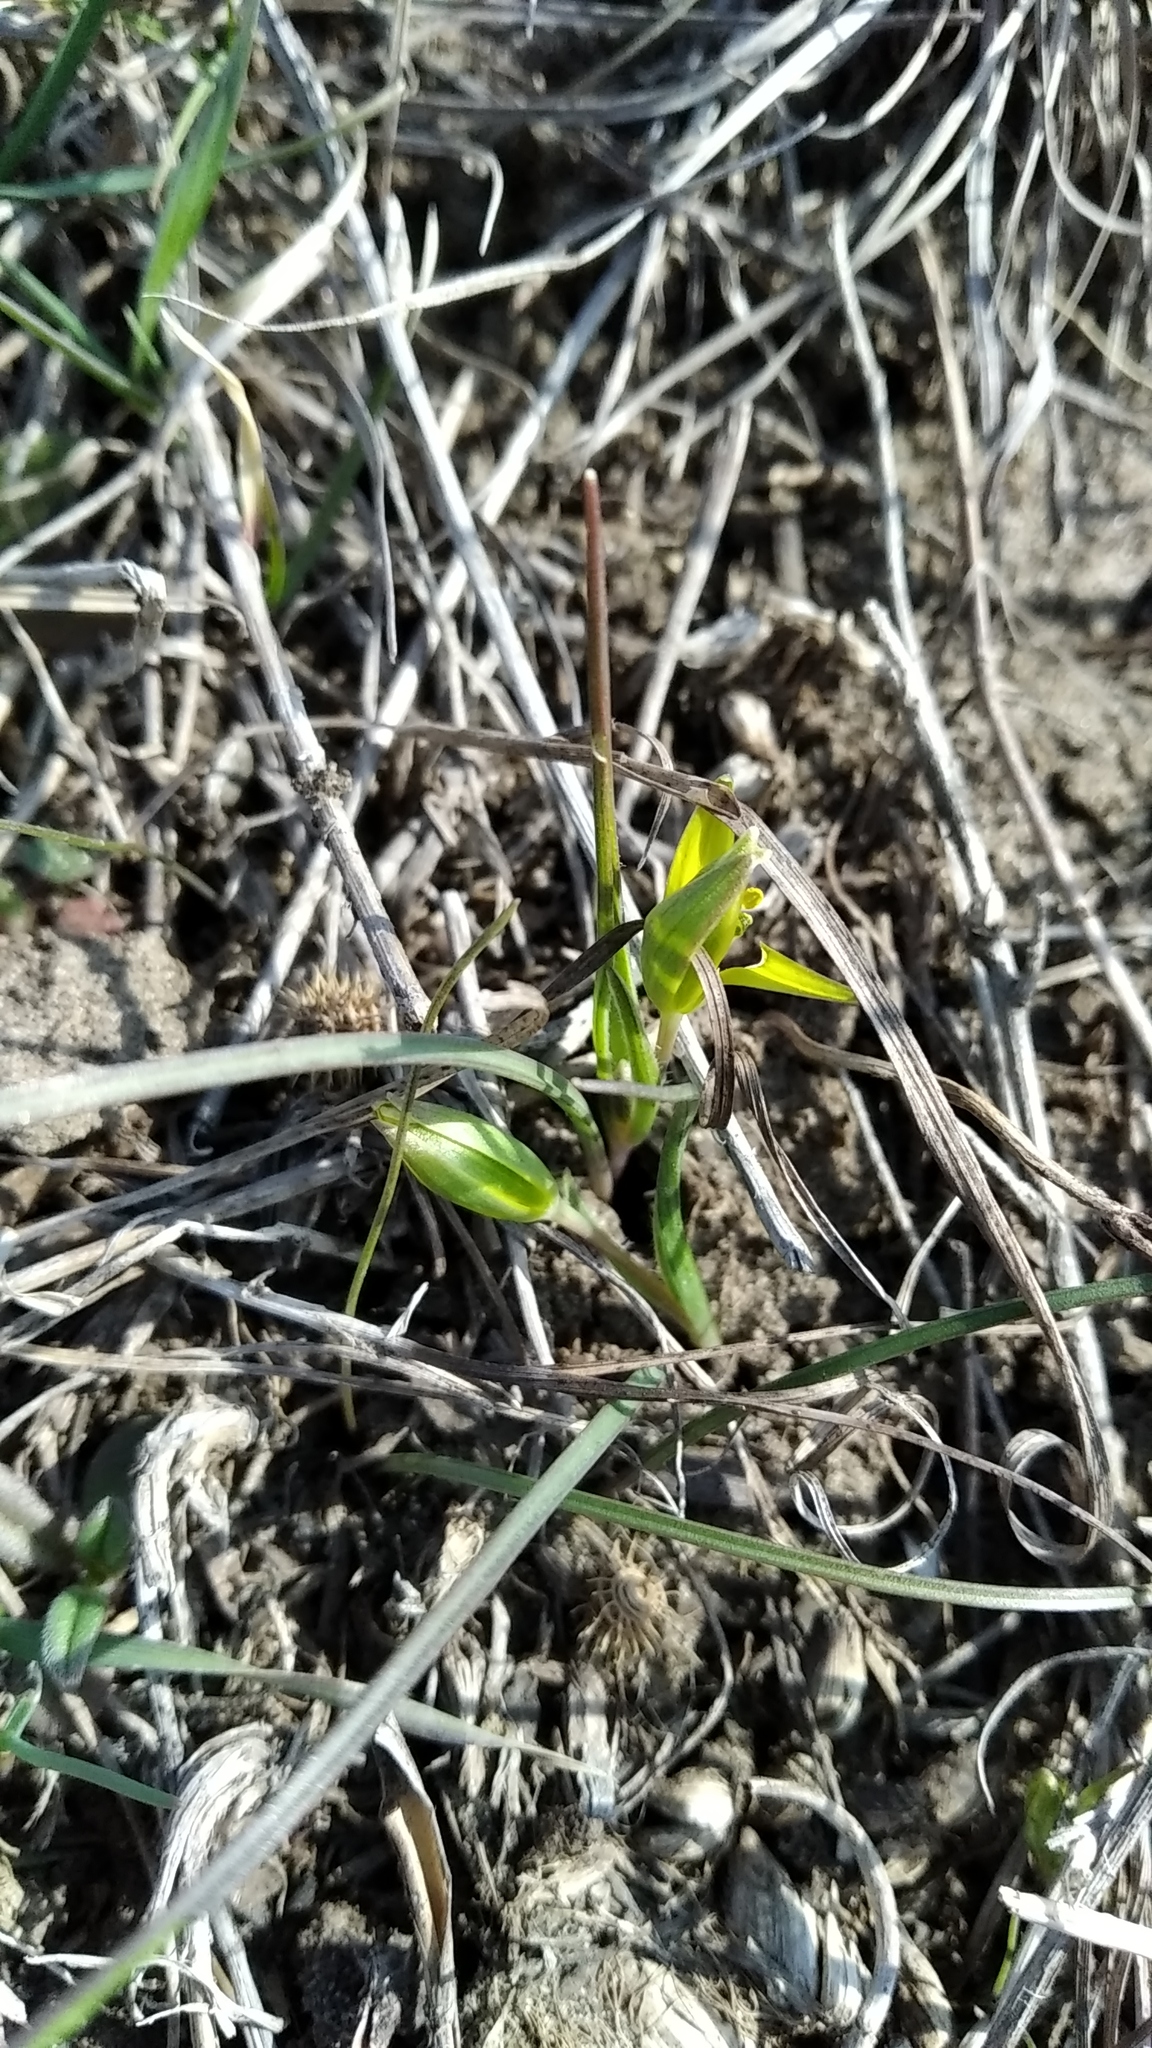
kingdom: Plantae
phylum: Tracheophyta
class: Liliopsida
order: Liliales
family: Liliaceae
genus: Gagea
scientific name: Gagea pusilla
